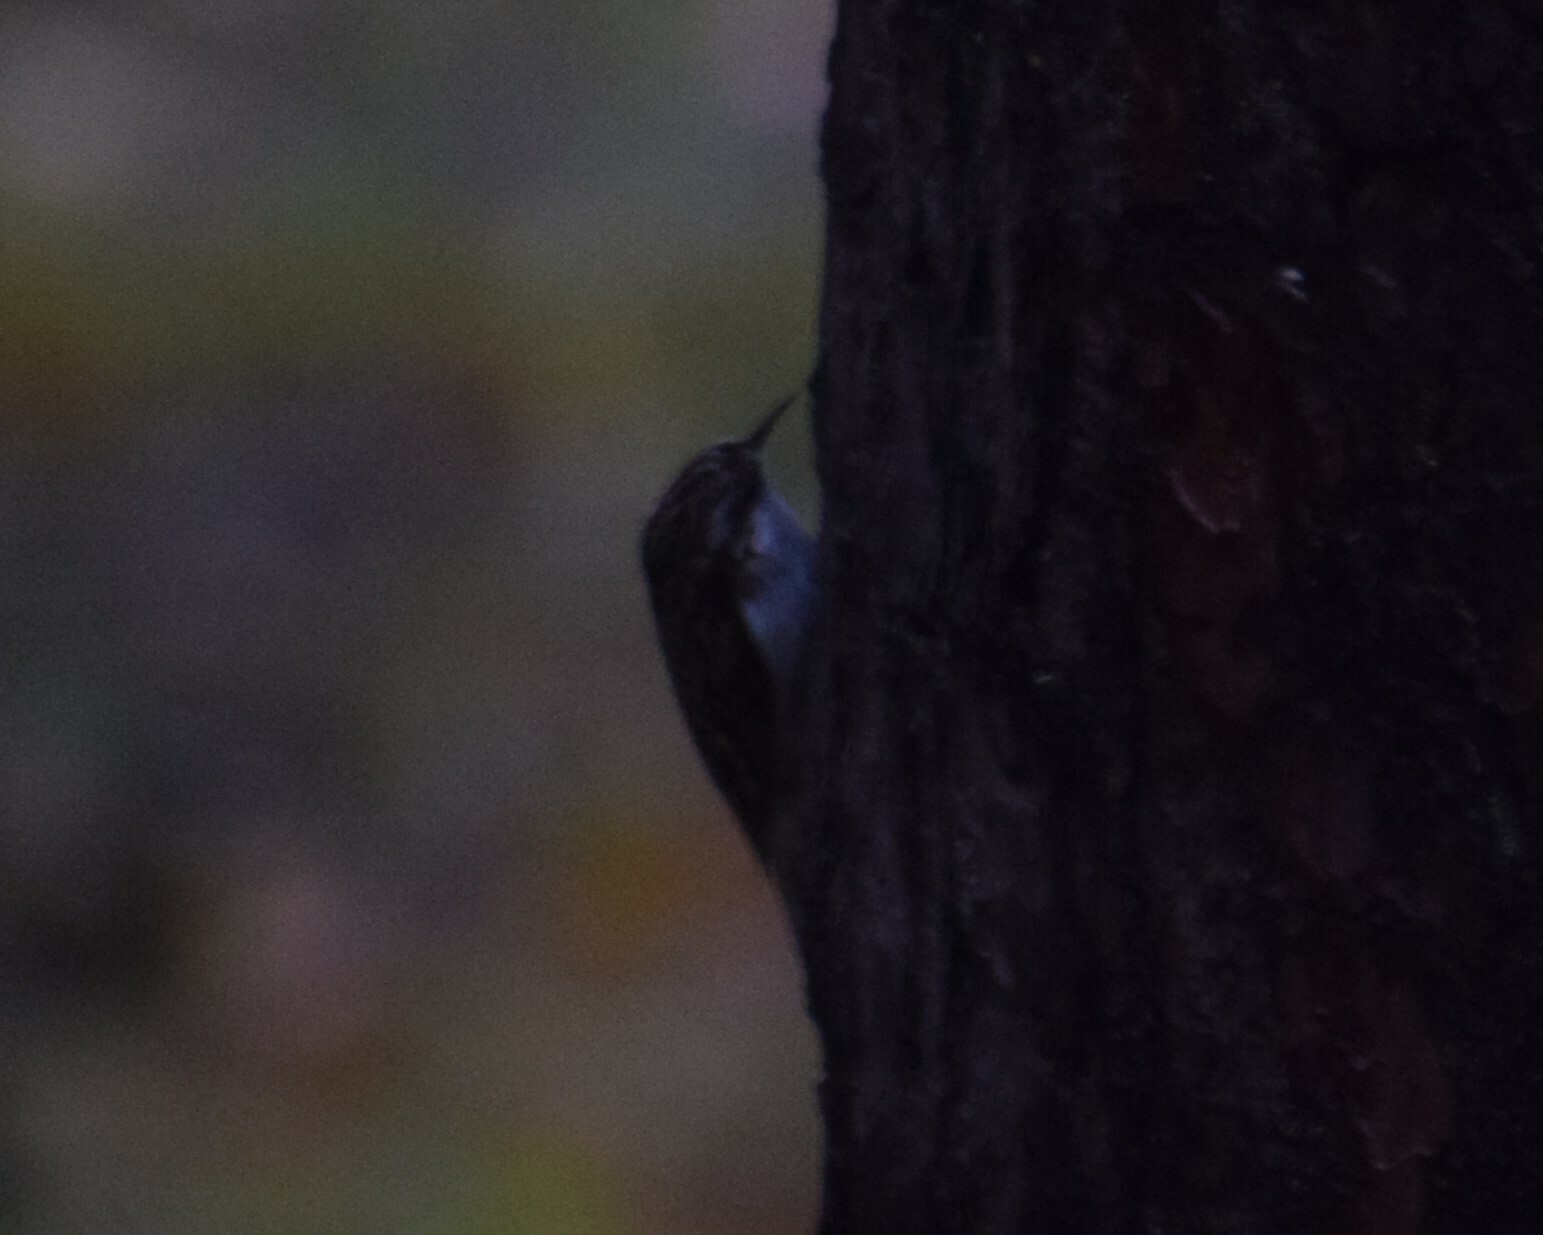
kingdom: Animalia
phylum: Chordata
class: Aves
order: Passeriformes
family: Certhiidae
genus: Certhia
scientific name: Certhia familiaris
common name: Eurasian treecreeper
